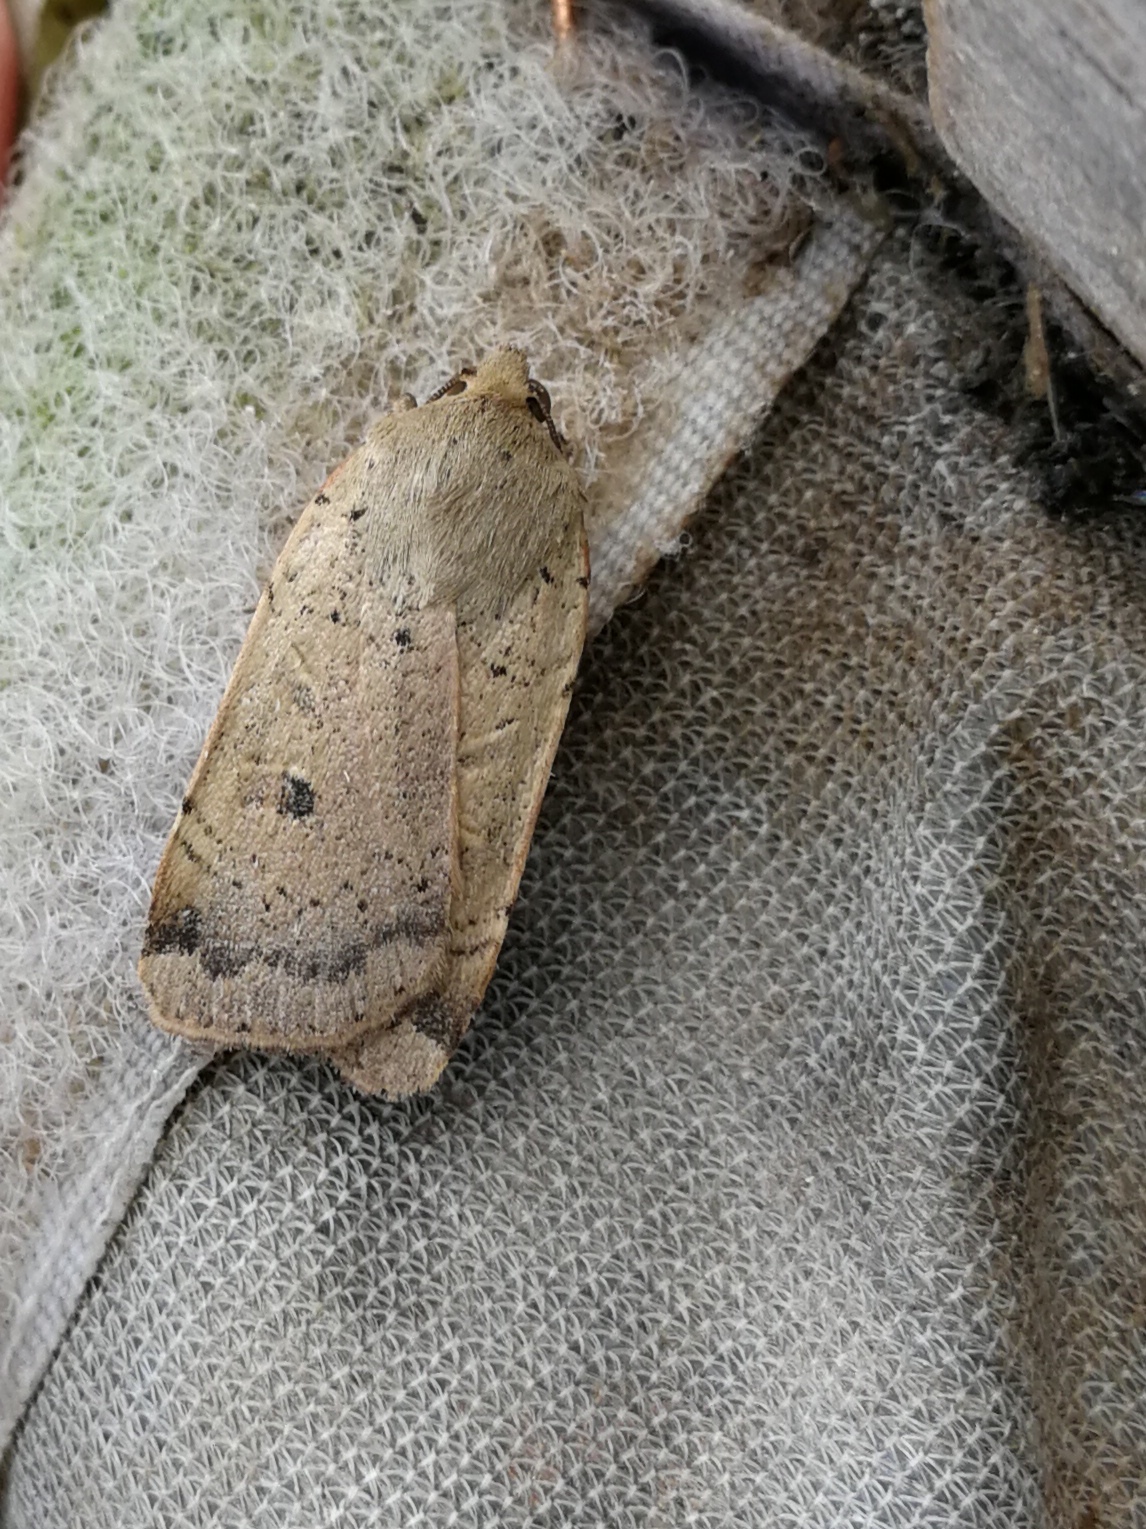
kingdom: Animalia
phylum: Arthropoda
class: Insecta
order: Lepidoptera
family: Noctuidae
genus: Noctua
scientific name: Noctua comes
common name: Lesser yellow underwing
